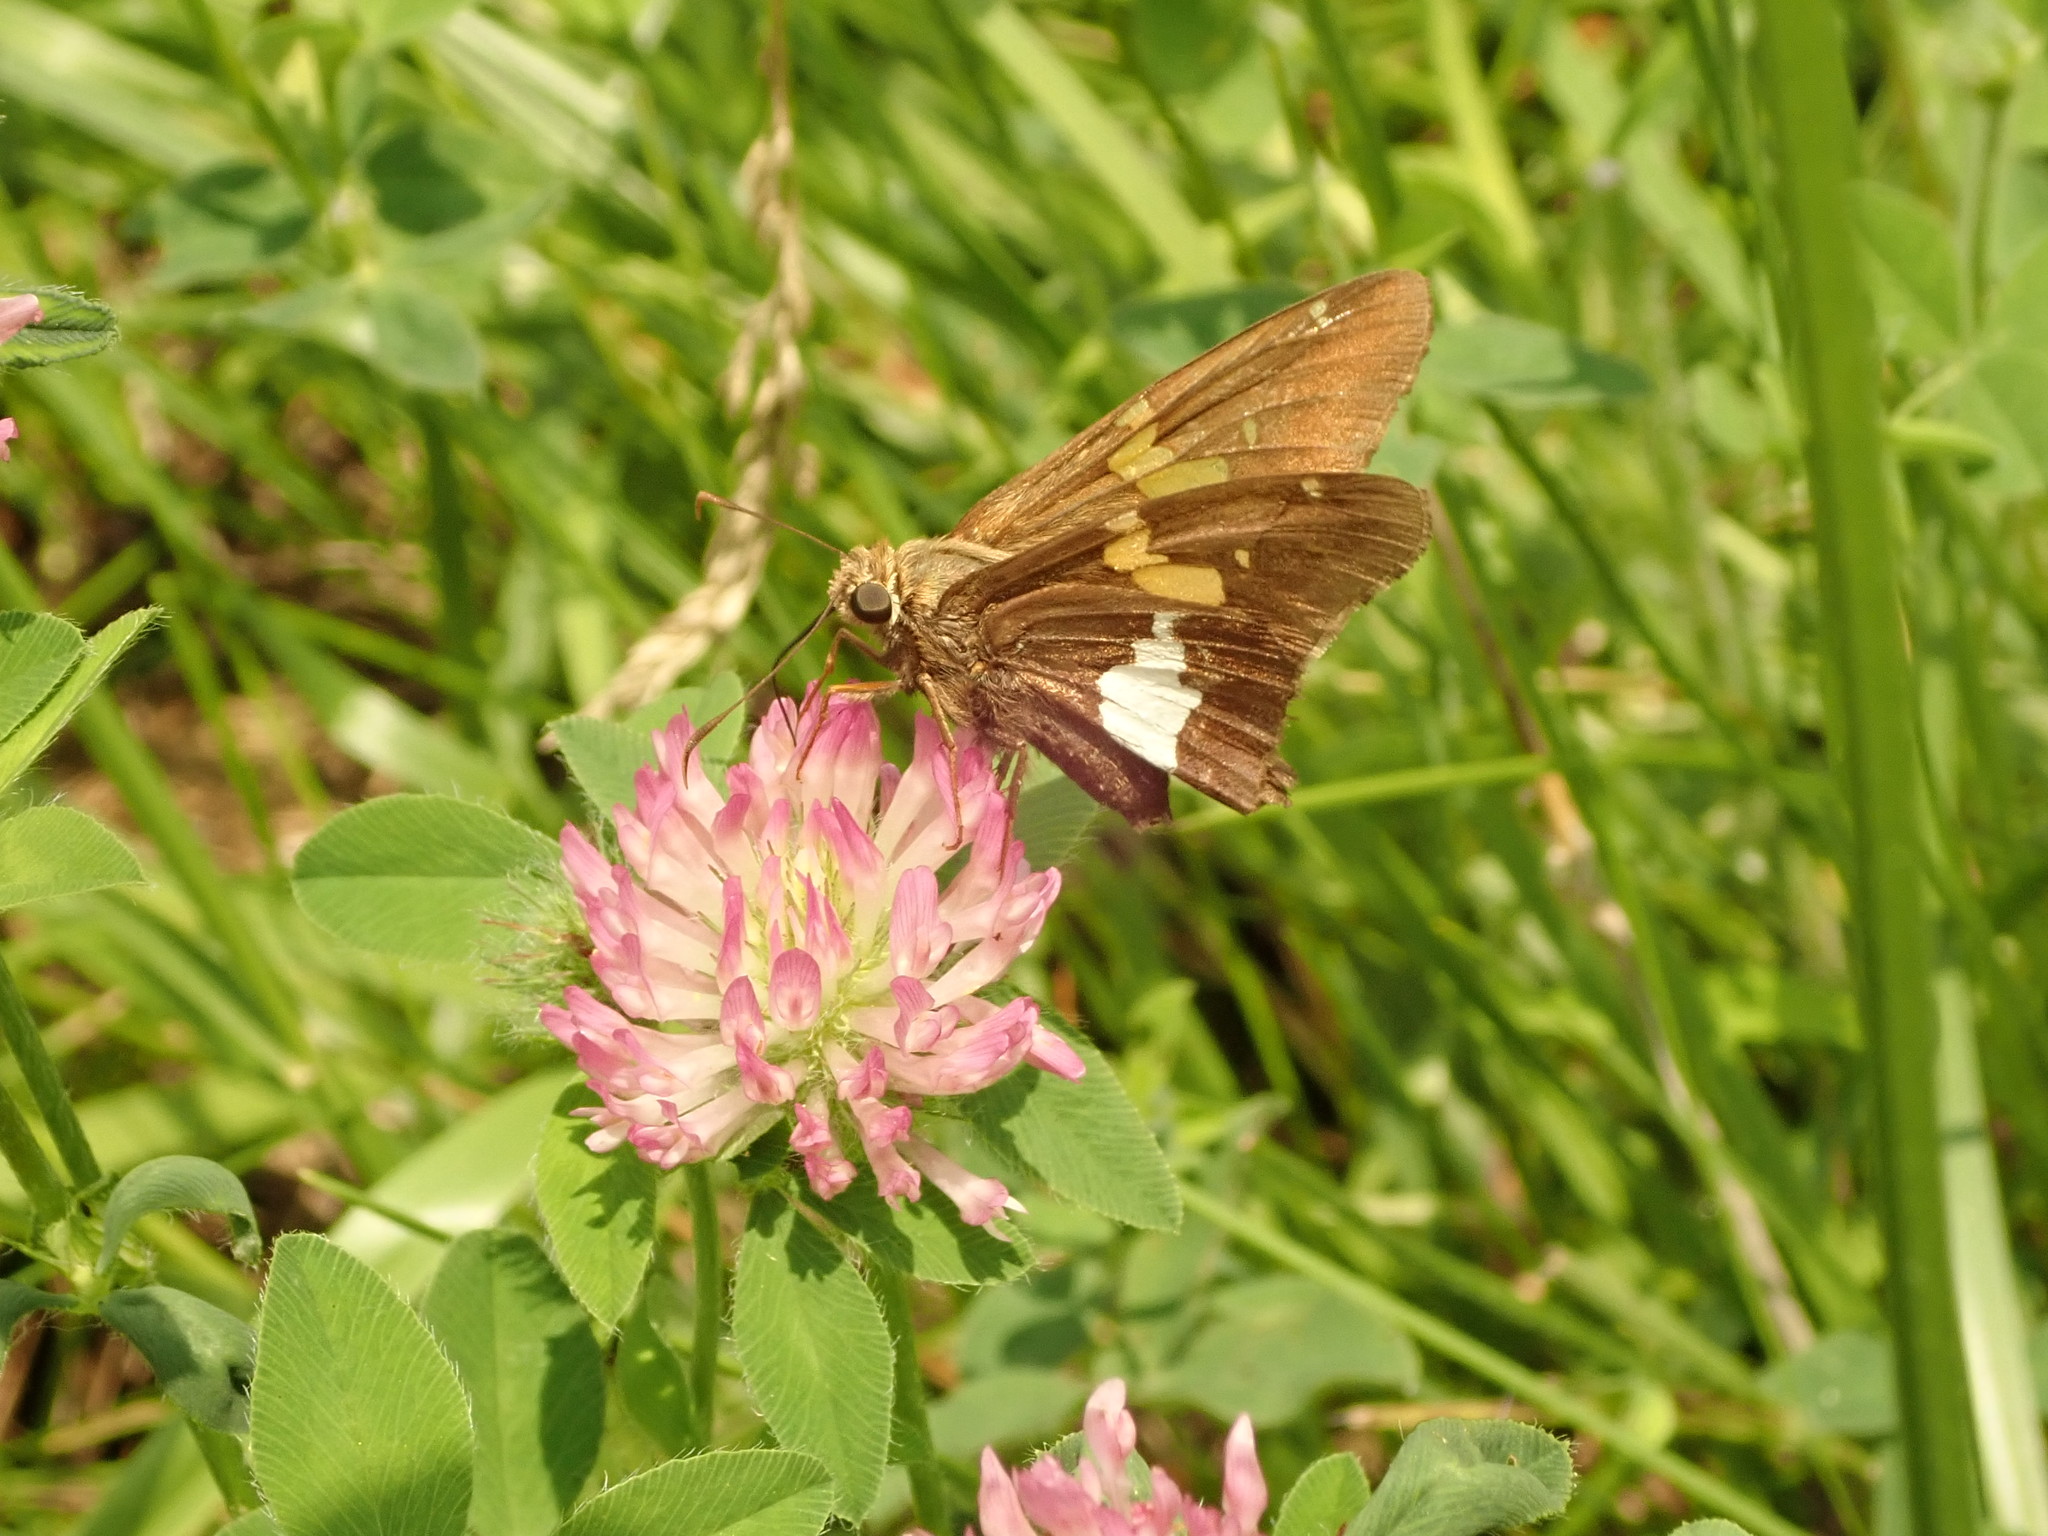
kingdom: Animalia
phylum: Arthropoda
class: Insecta
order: Lepidoptera
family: Hesperiidae
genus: Epargyreus
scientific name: Epargyreus clarus
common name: Silver-spotted skipper
